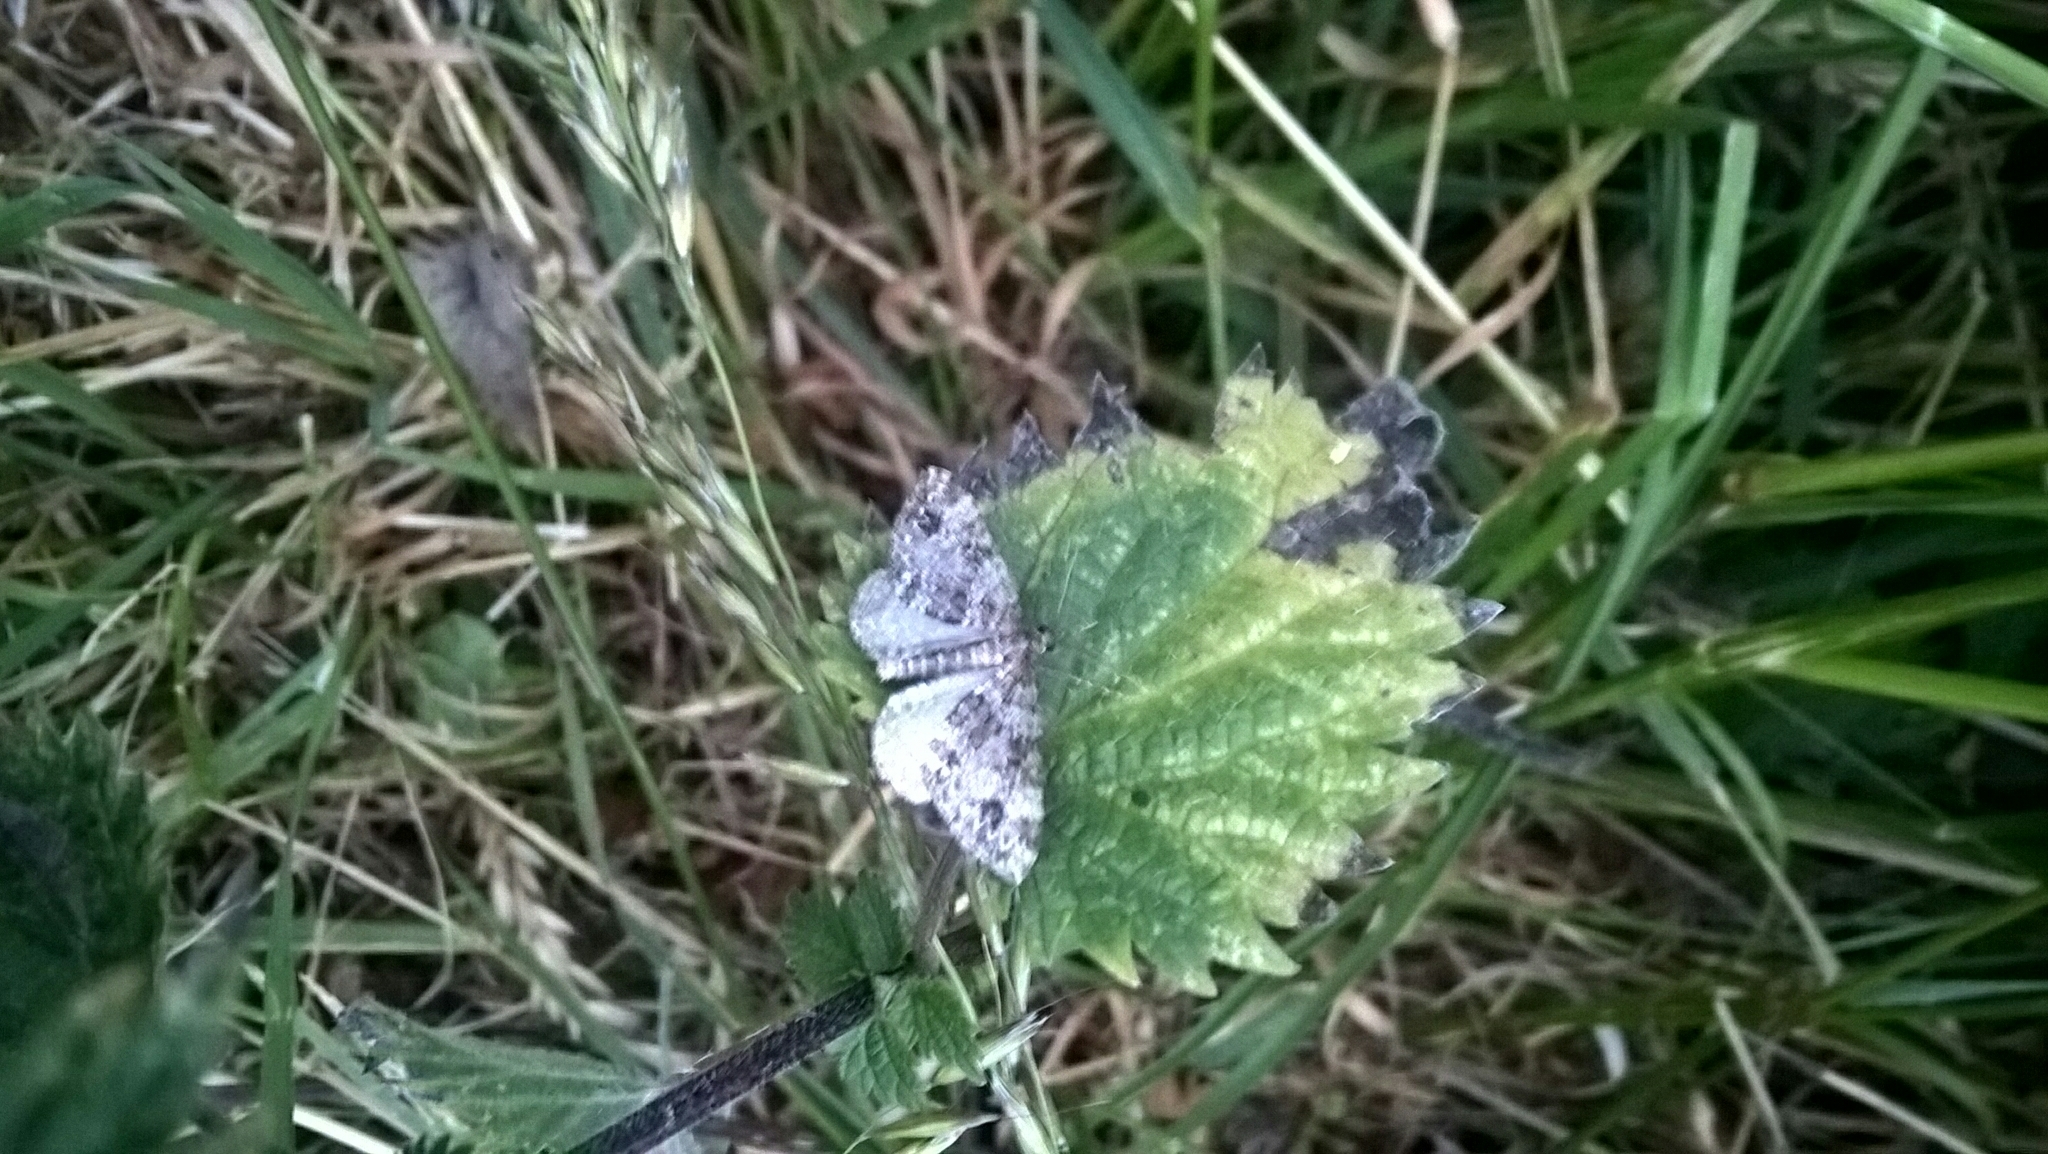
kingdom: Animalia
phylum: Arthropoda
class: Insecta
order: Lepidoptera
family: Geometridae
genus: Perizoma
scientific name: Perizoma didymata
